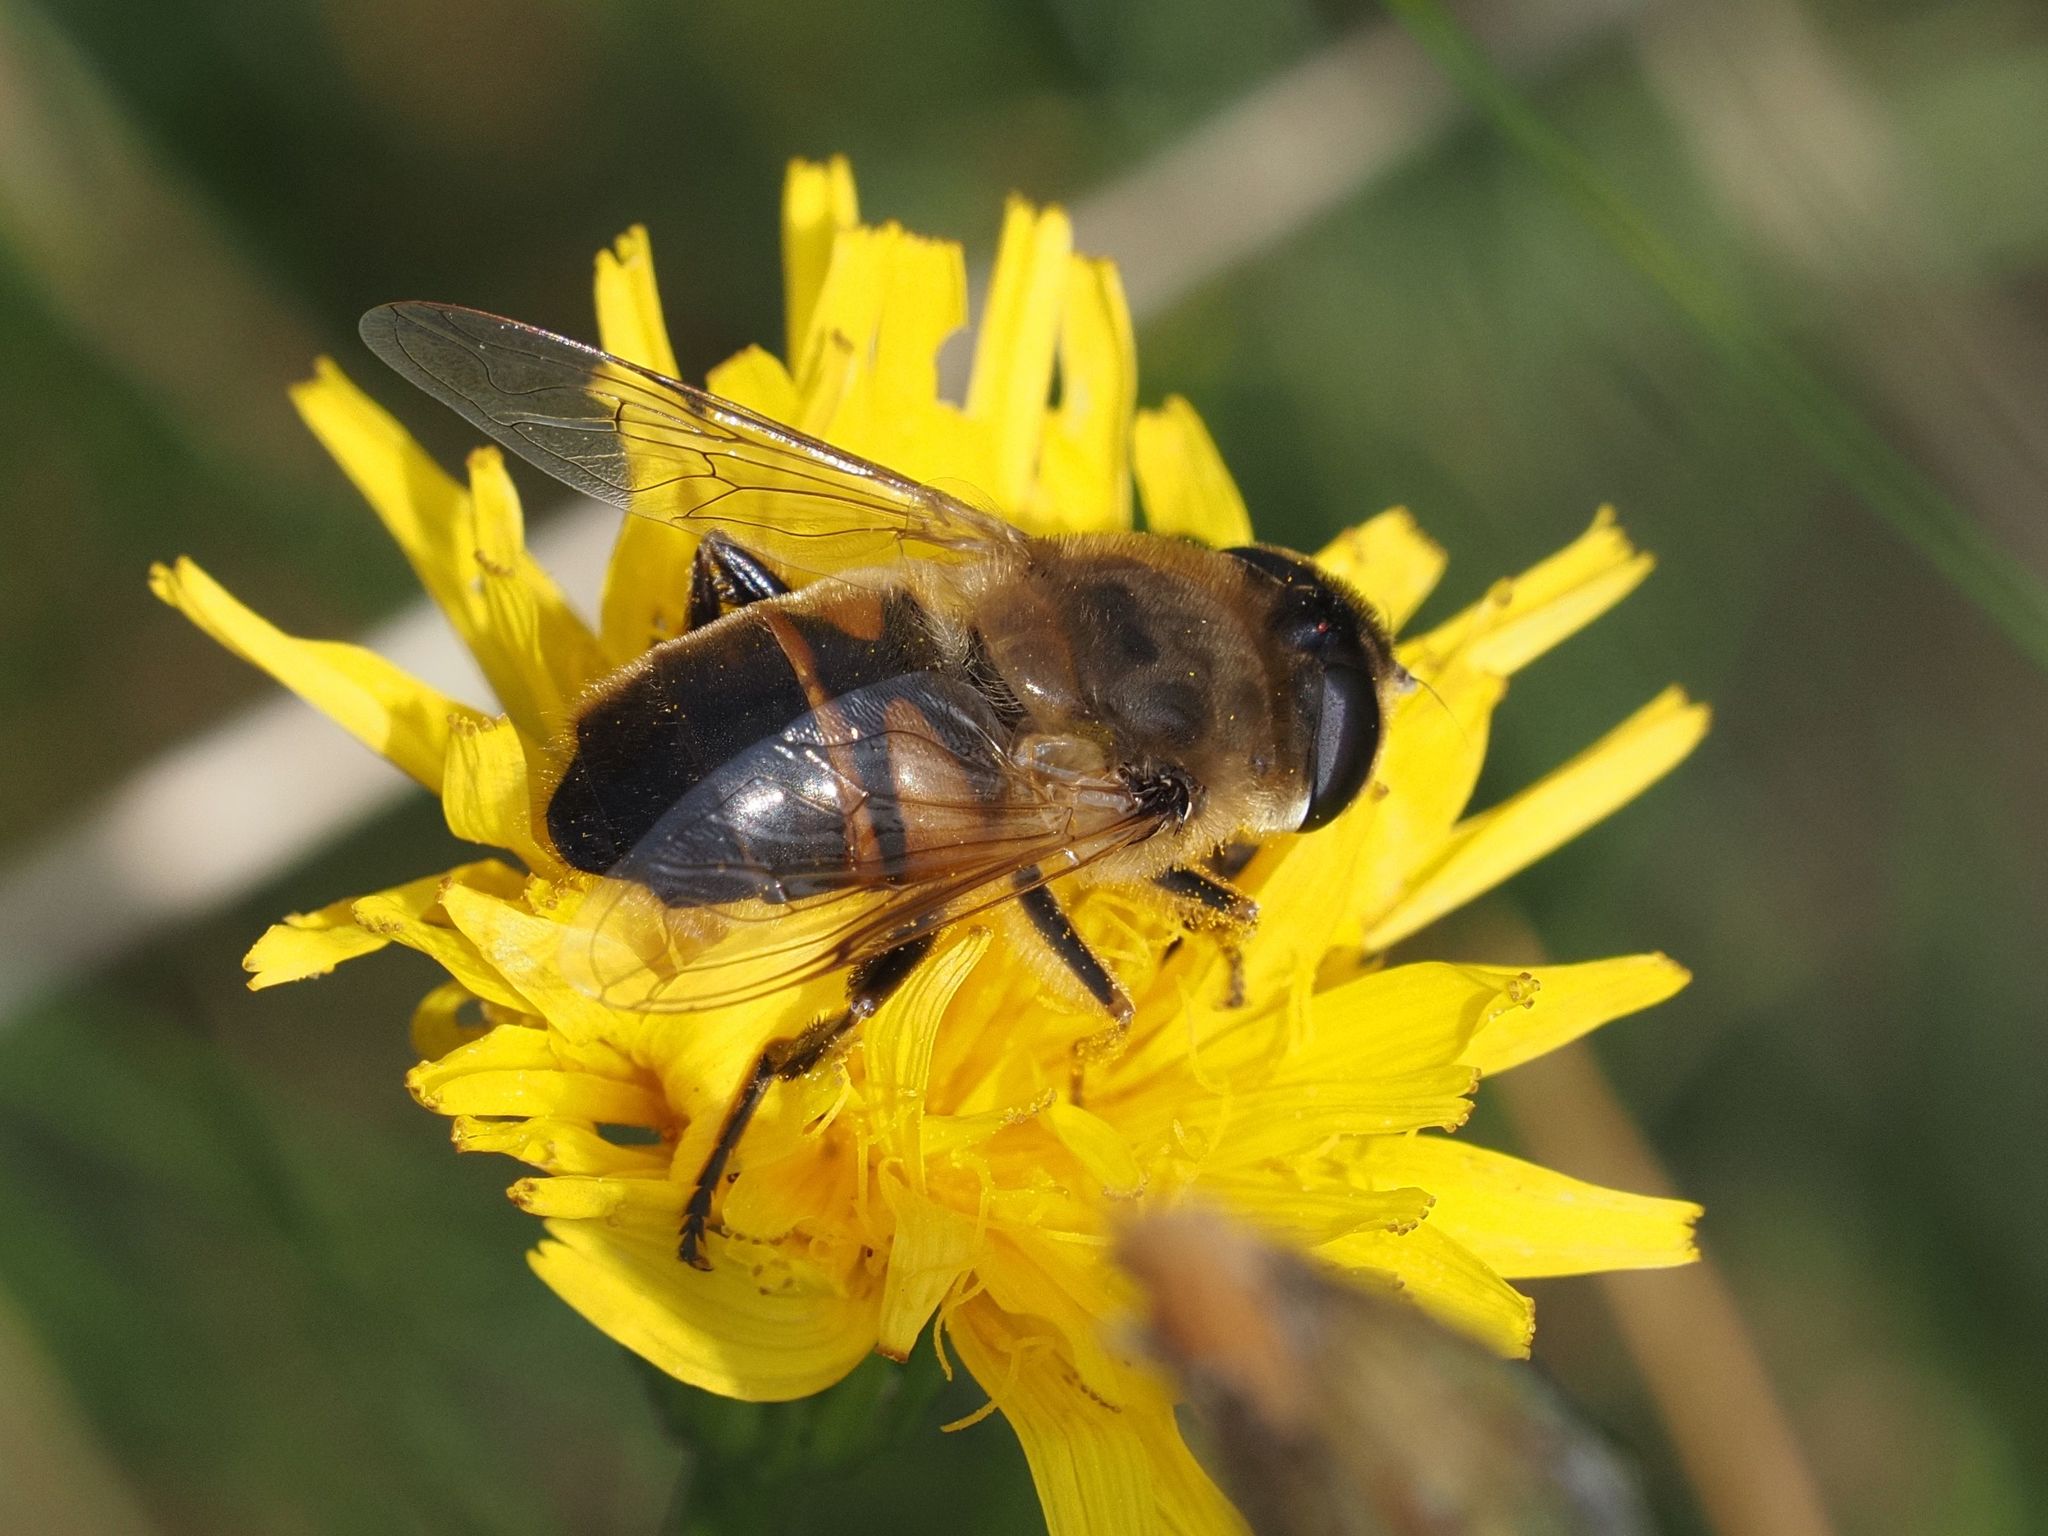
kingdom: Animalia
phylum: Arthropoda
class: Insecta
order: Diptera
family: Syrphidae
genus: Eristalis
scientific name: Eristalis tenax
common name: Drone fly
